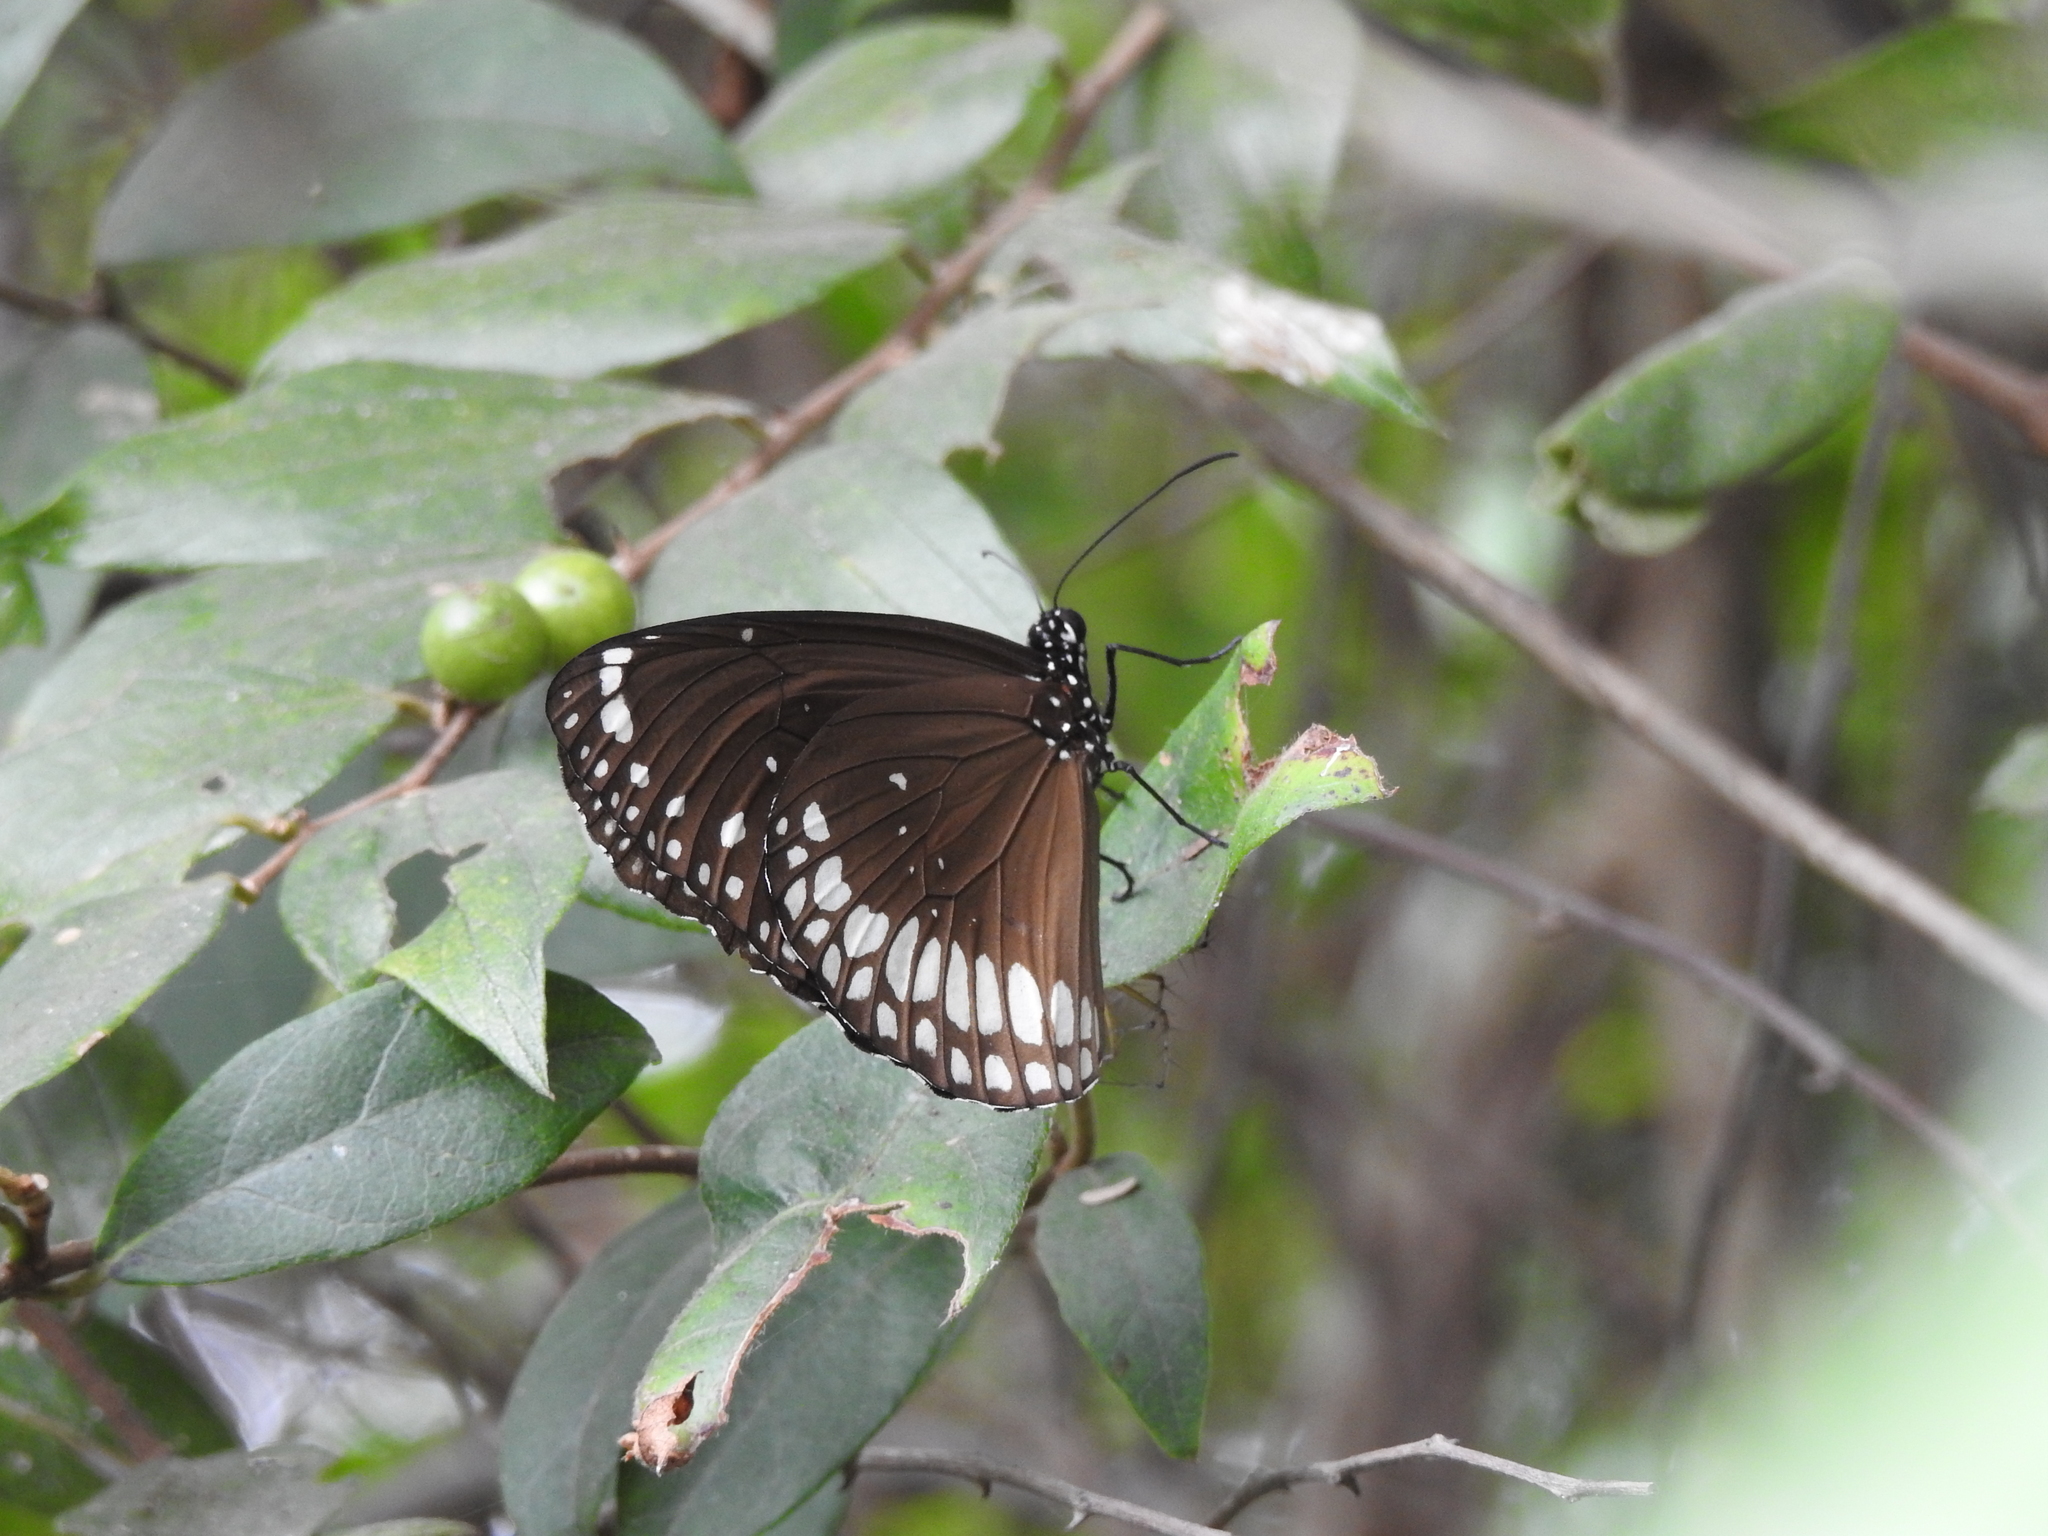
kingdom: Animalia
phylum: Arthropoda
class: Insecta
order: Lepidoptera
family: Nymphalidae
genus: Euploea
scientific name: Euploea core
